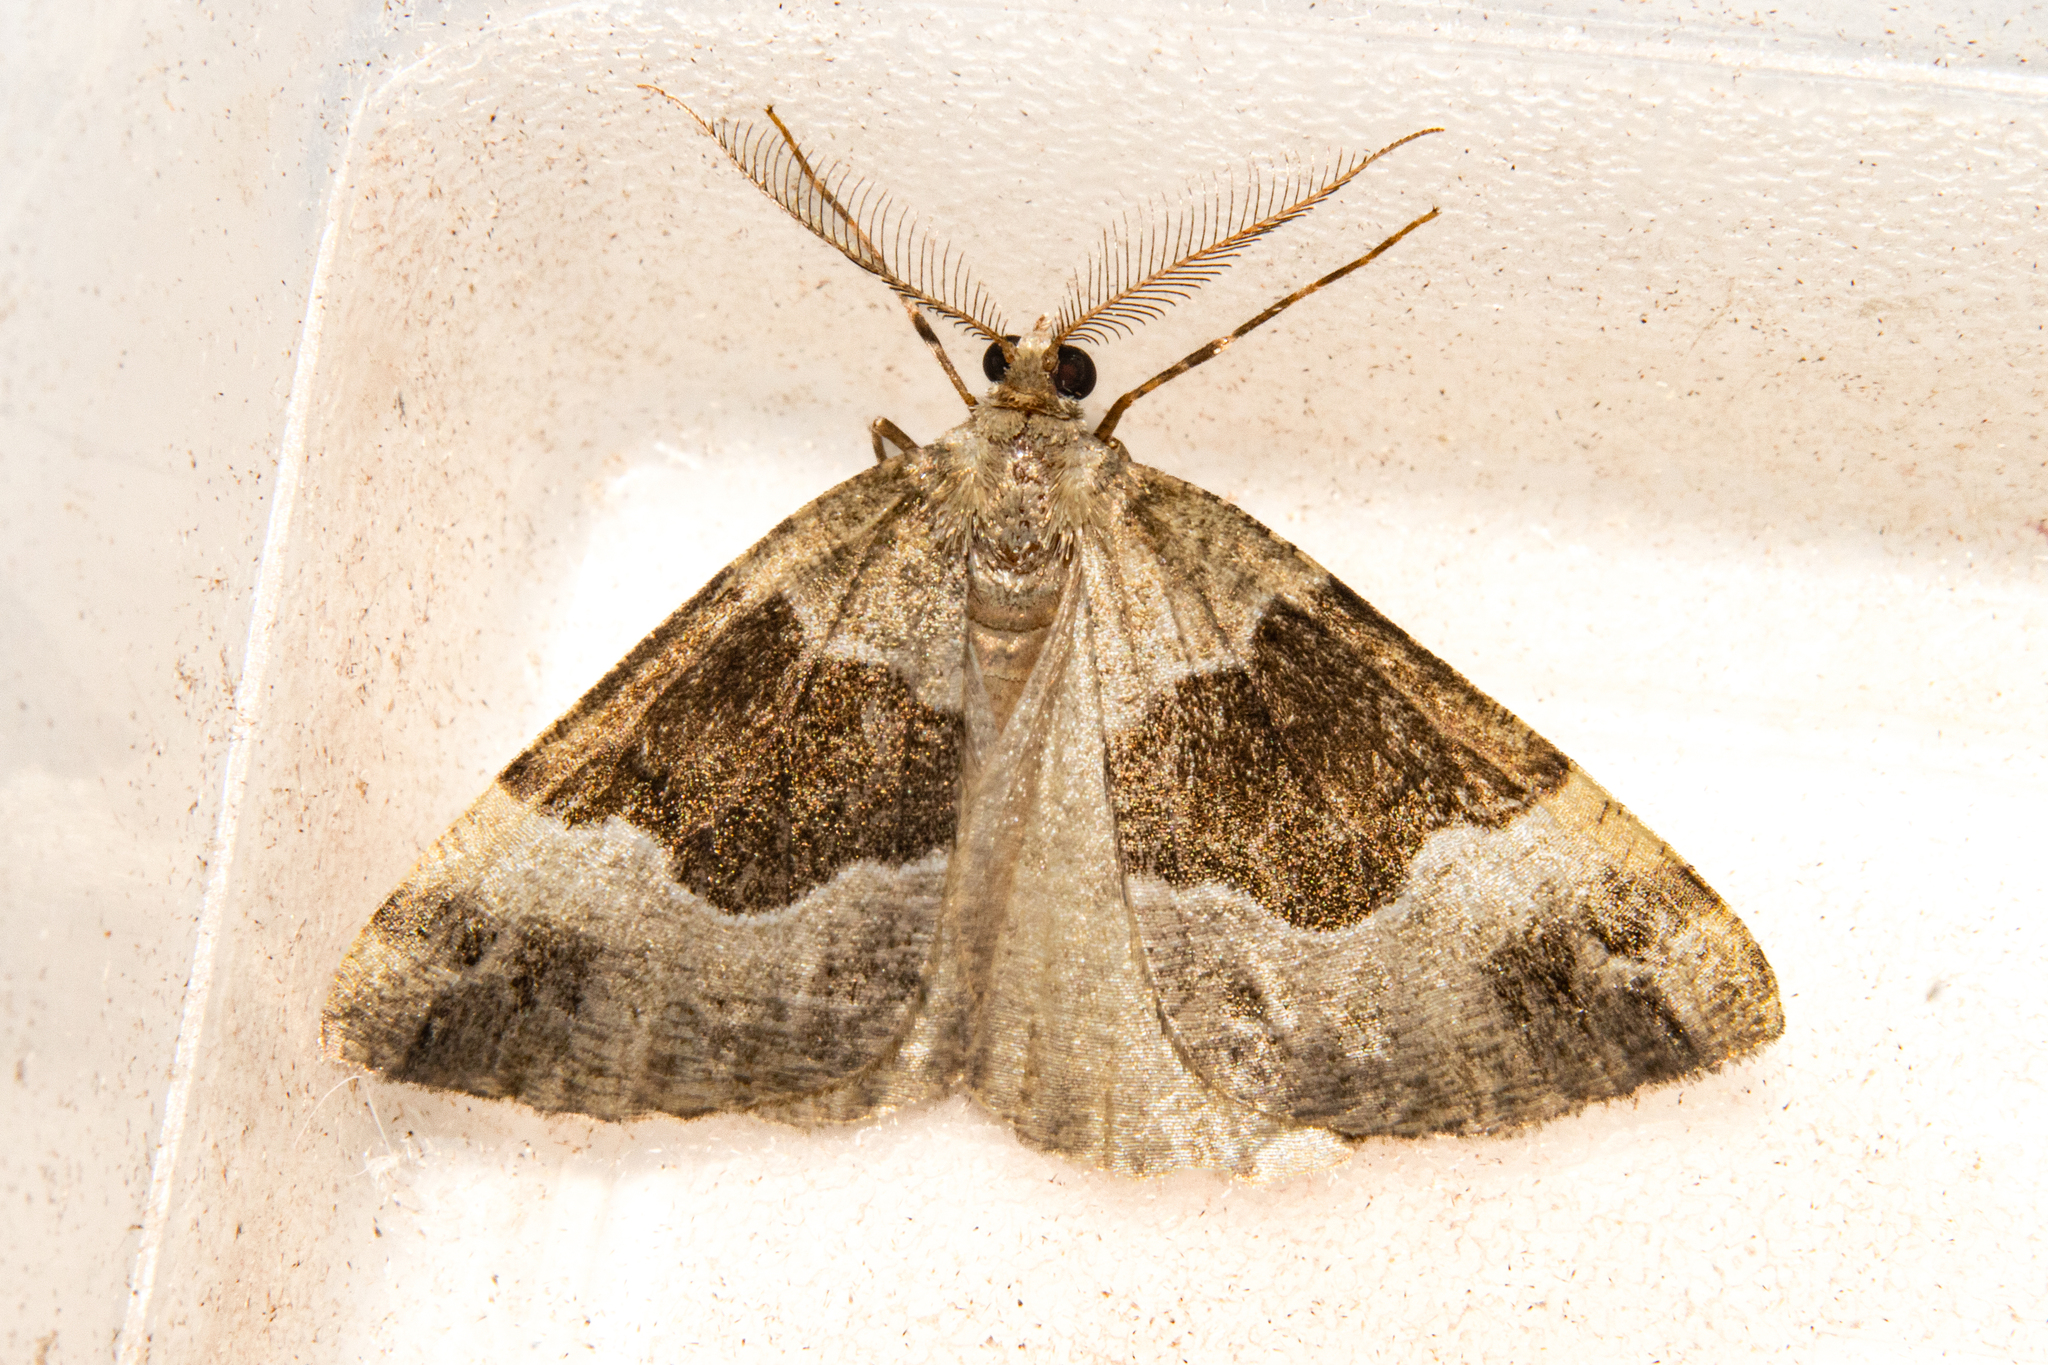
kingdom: Animalia
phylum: Arthropoda
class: Insecta
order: Lepidoptera
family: Geometridae
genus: Pseudocoremia
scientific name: Pseudocoremia
